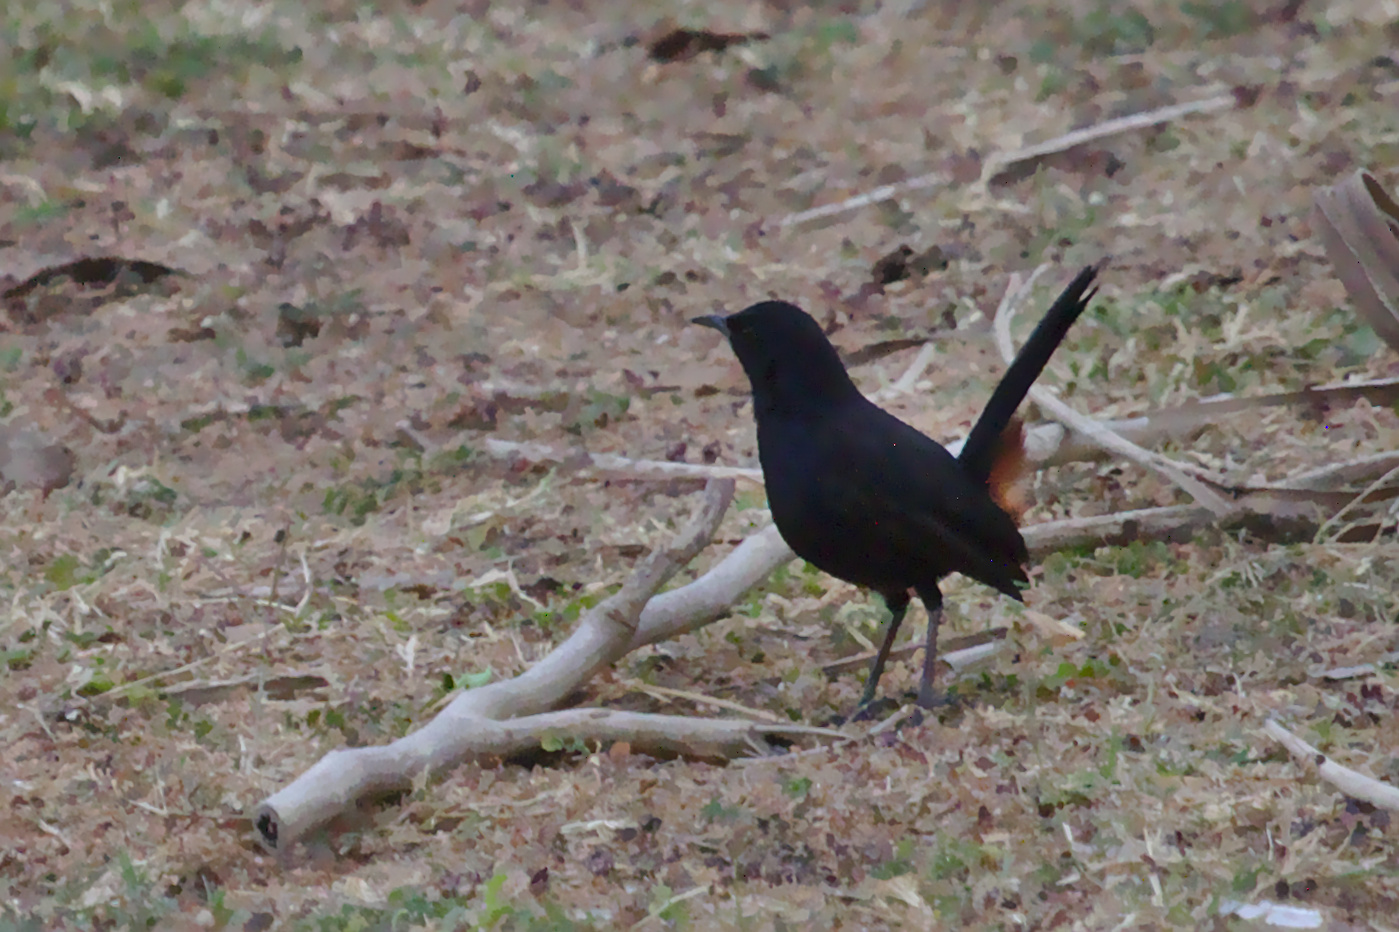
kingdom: Animalia
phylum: Chordata
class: Aves
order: Passeriformes
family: Muscicapidae
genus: Saxicoloides
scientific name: Saxicoloides fulicatus
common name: Indian robin
